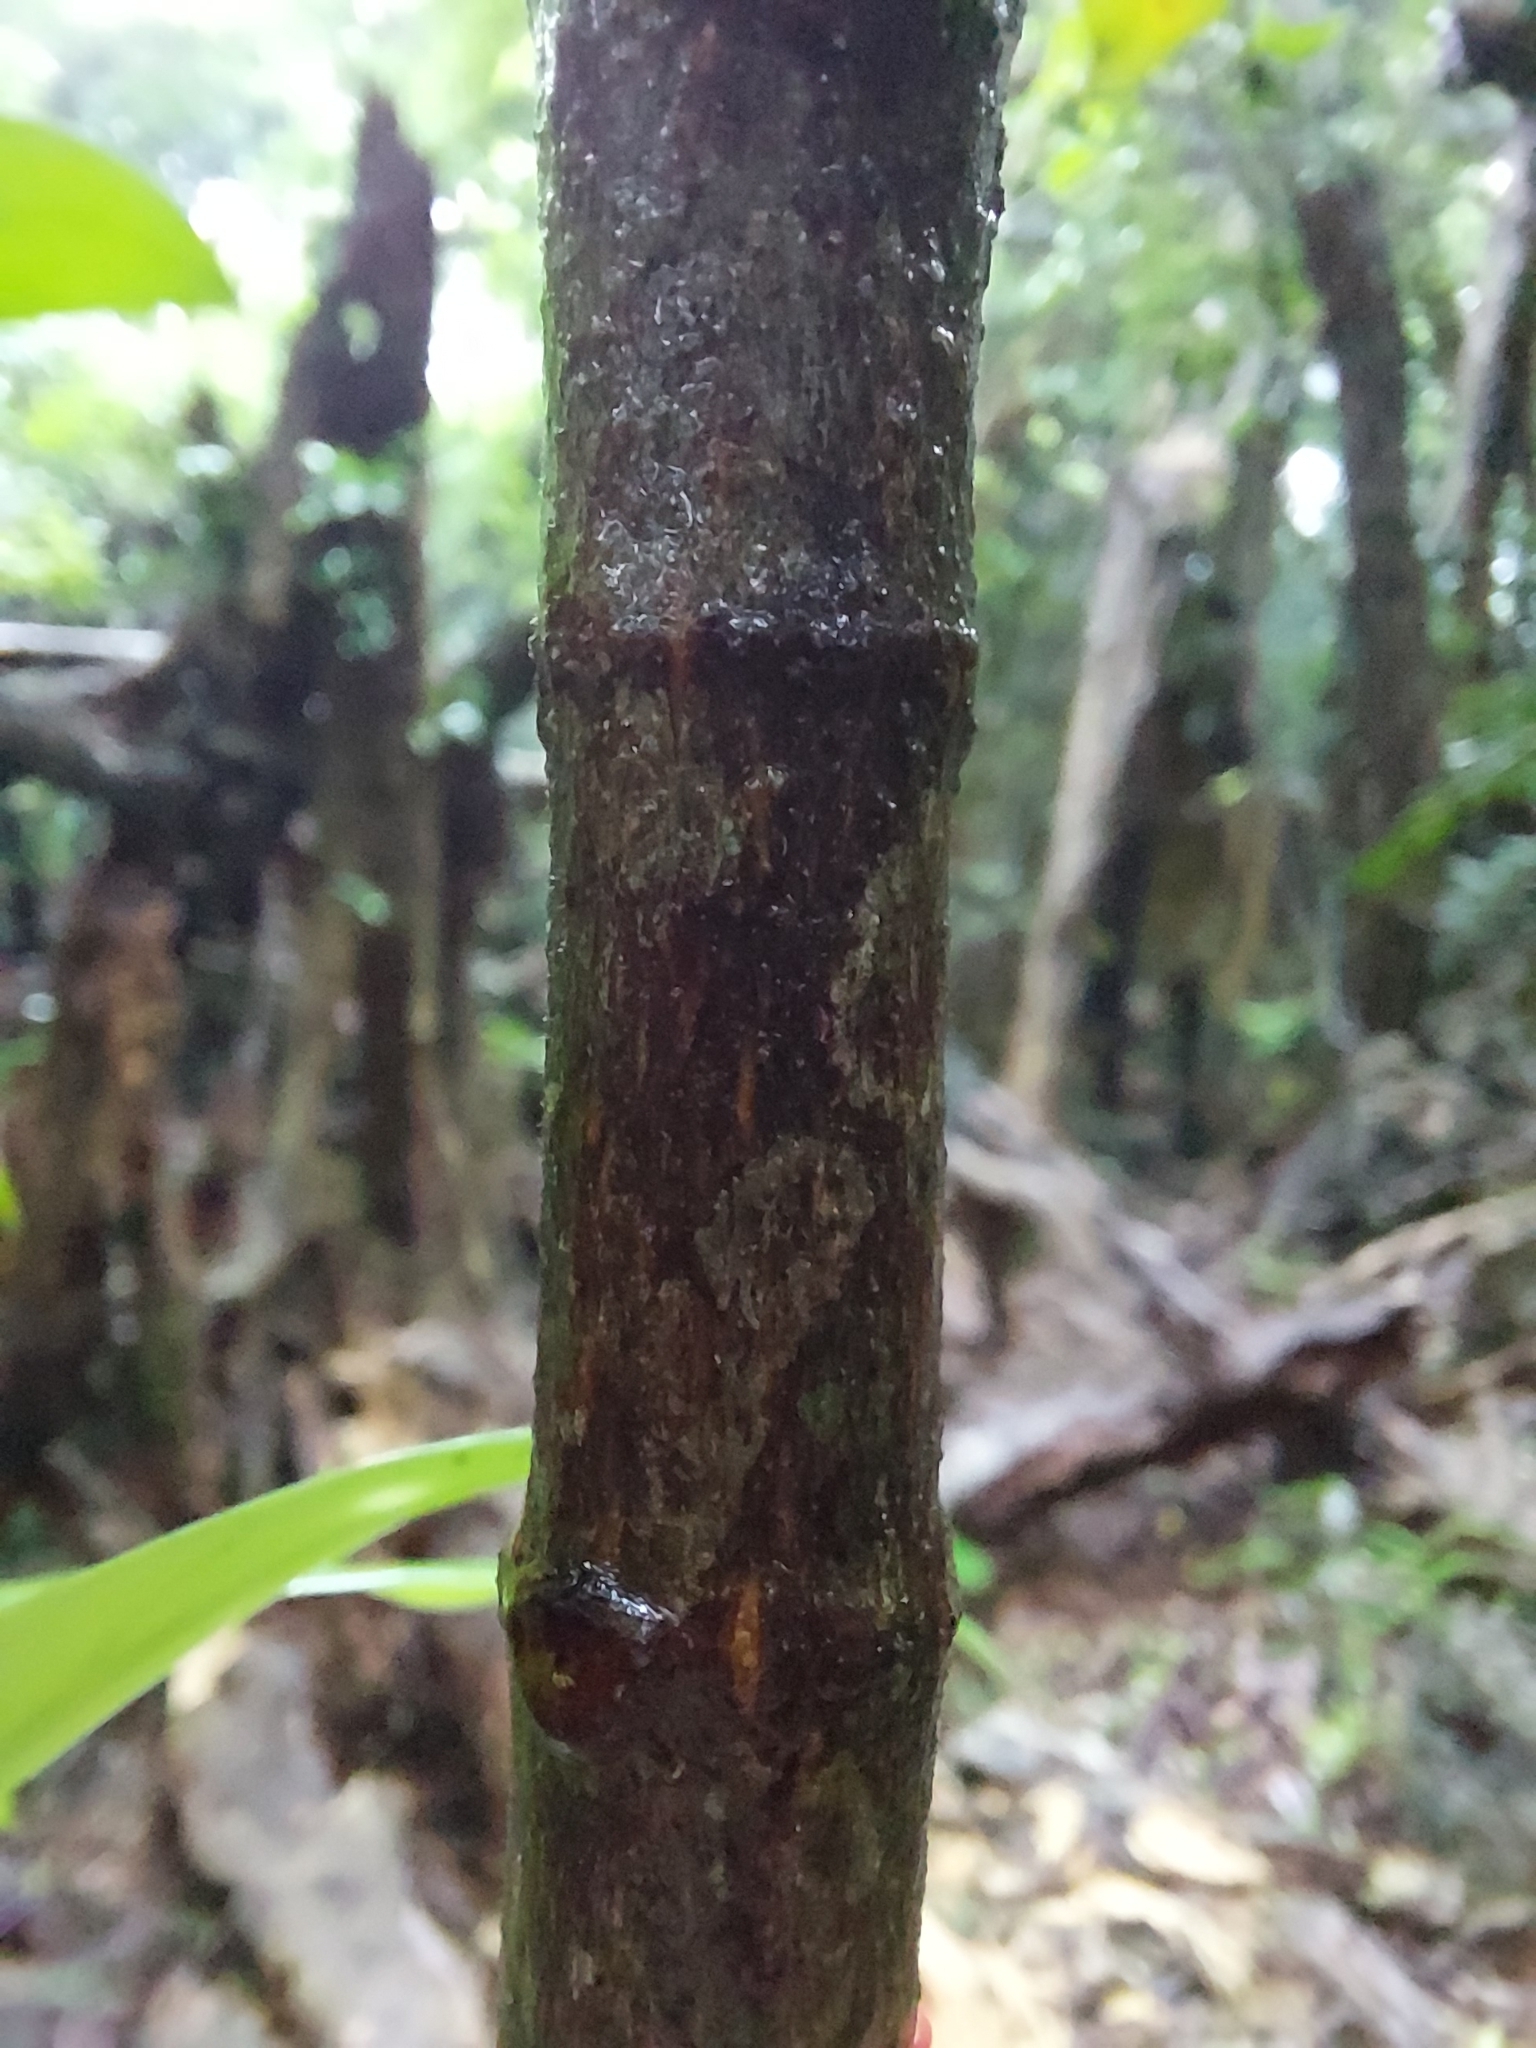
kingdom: Plantae
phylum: Tracheophyta
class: Magnoliopsida
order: Gentianales
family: Rubiaceae
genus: Psychotria
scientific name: Psychotria asiatica
